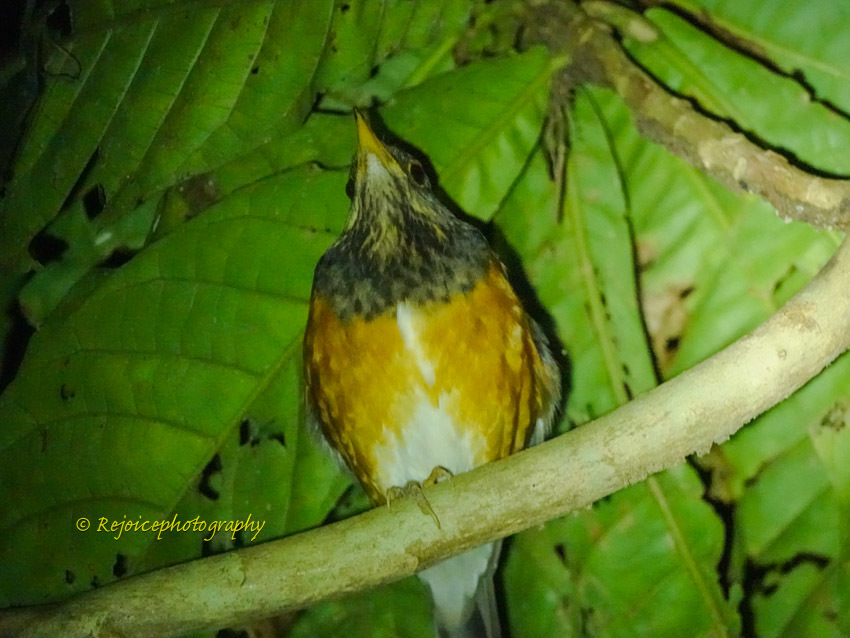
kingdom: Animalia
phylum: Chordata
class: Aves
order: Passeriformes
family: Turdidae
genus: Turdus
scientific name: Turdus dissimilis
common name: Black-breasted thrush
